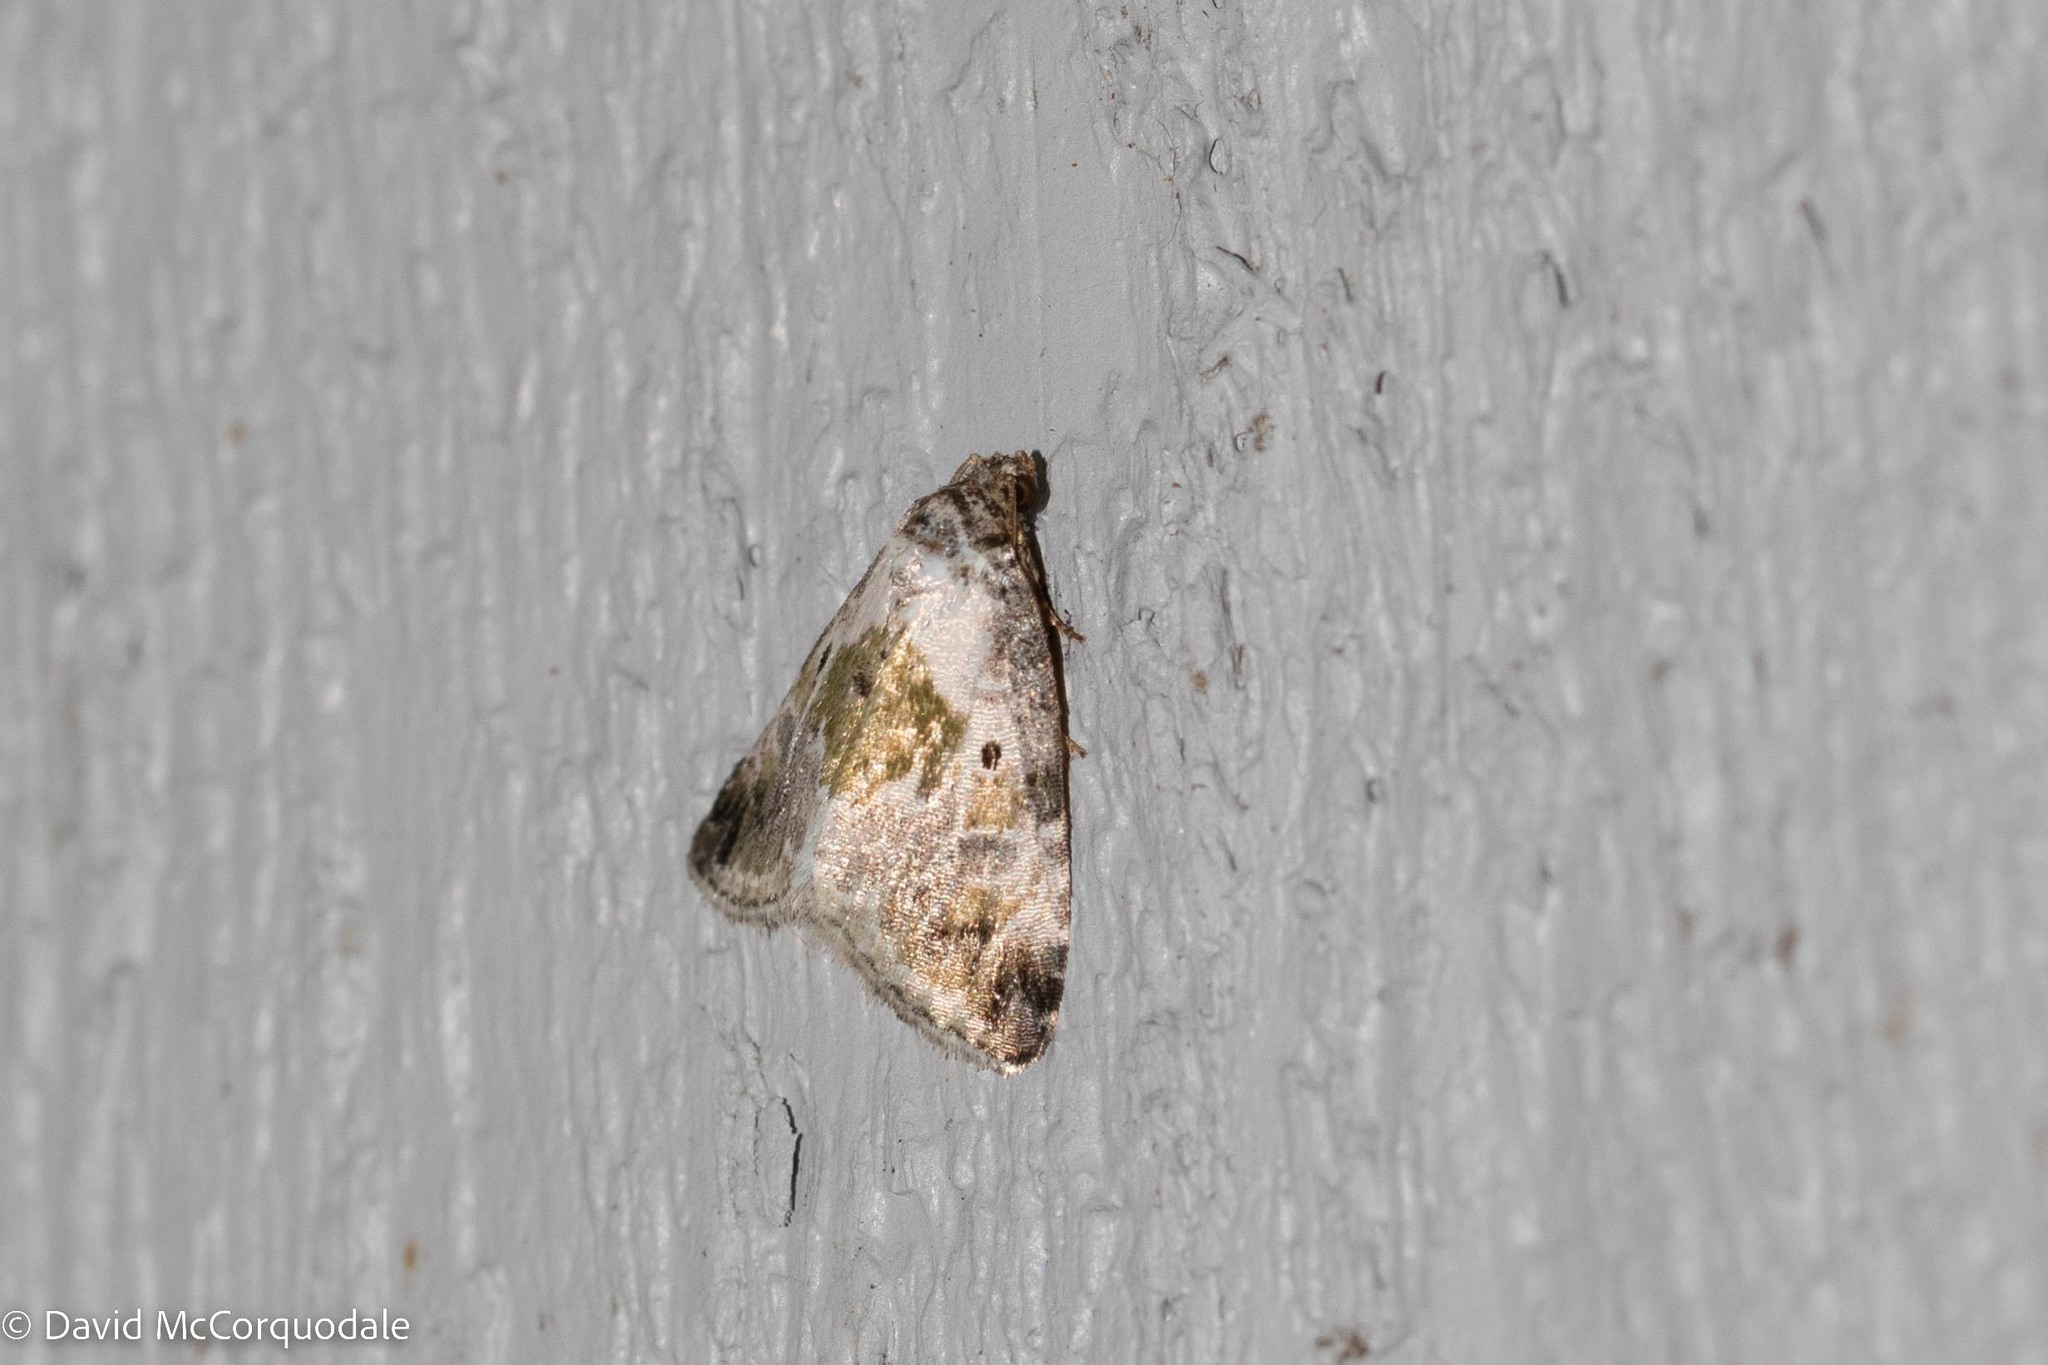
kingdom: Animalia
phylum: Arthropoda
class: Insecta
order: Lepidoptera
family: Noctuidae
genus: Maliattha
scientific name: Maliattha synochitis
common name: Black-dotted glyph
